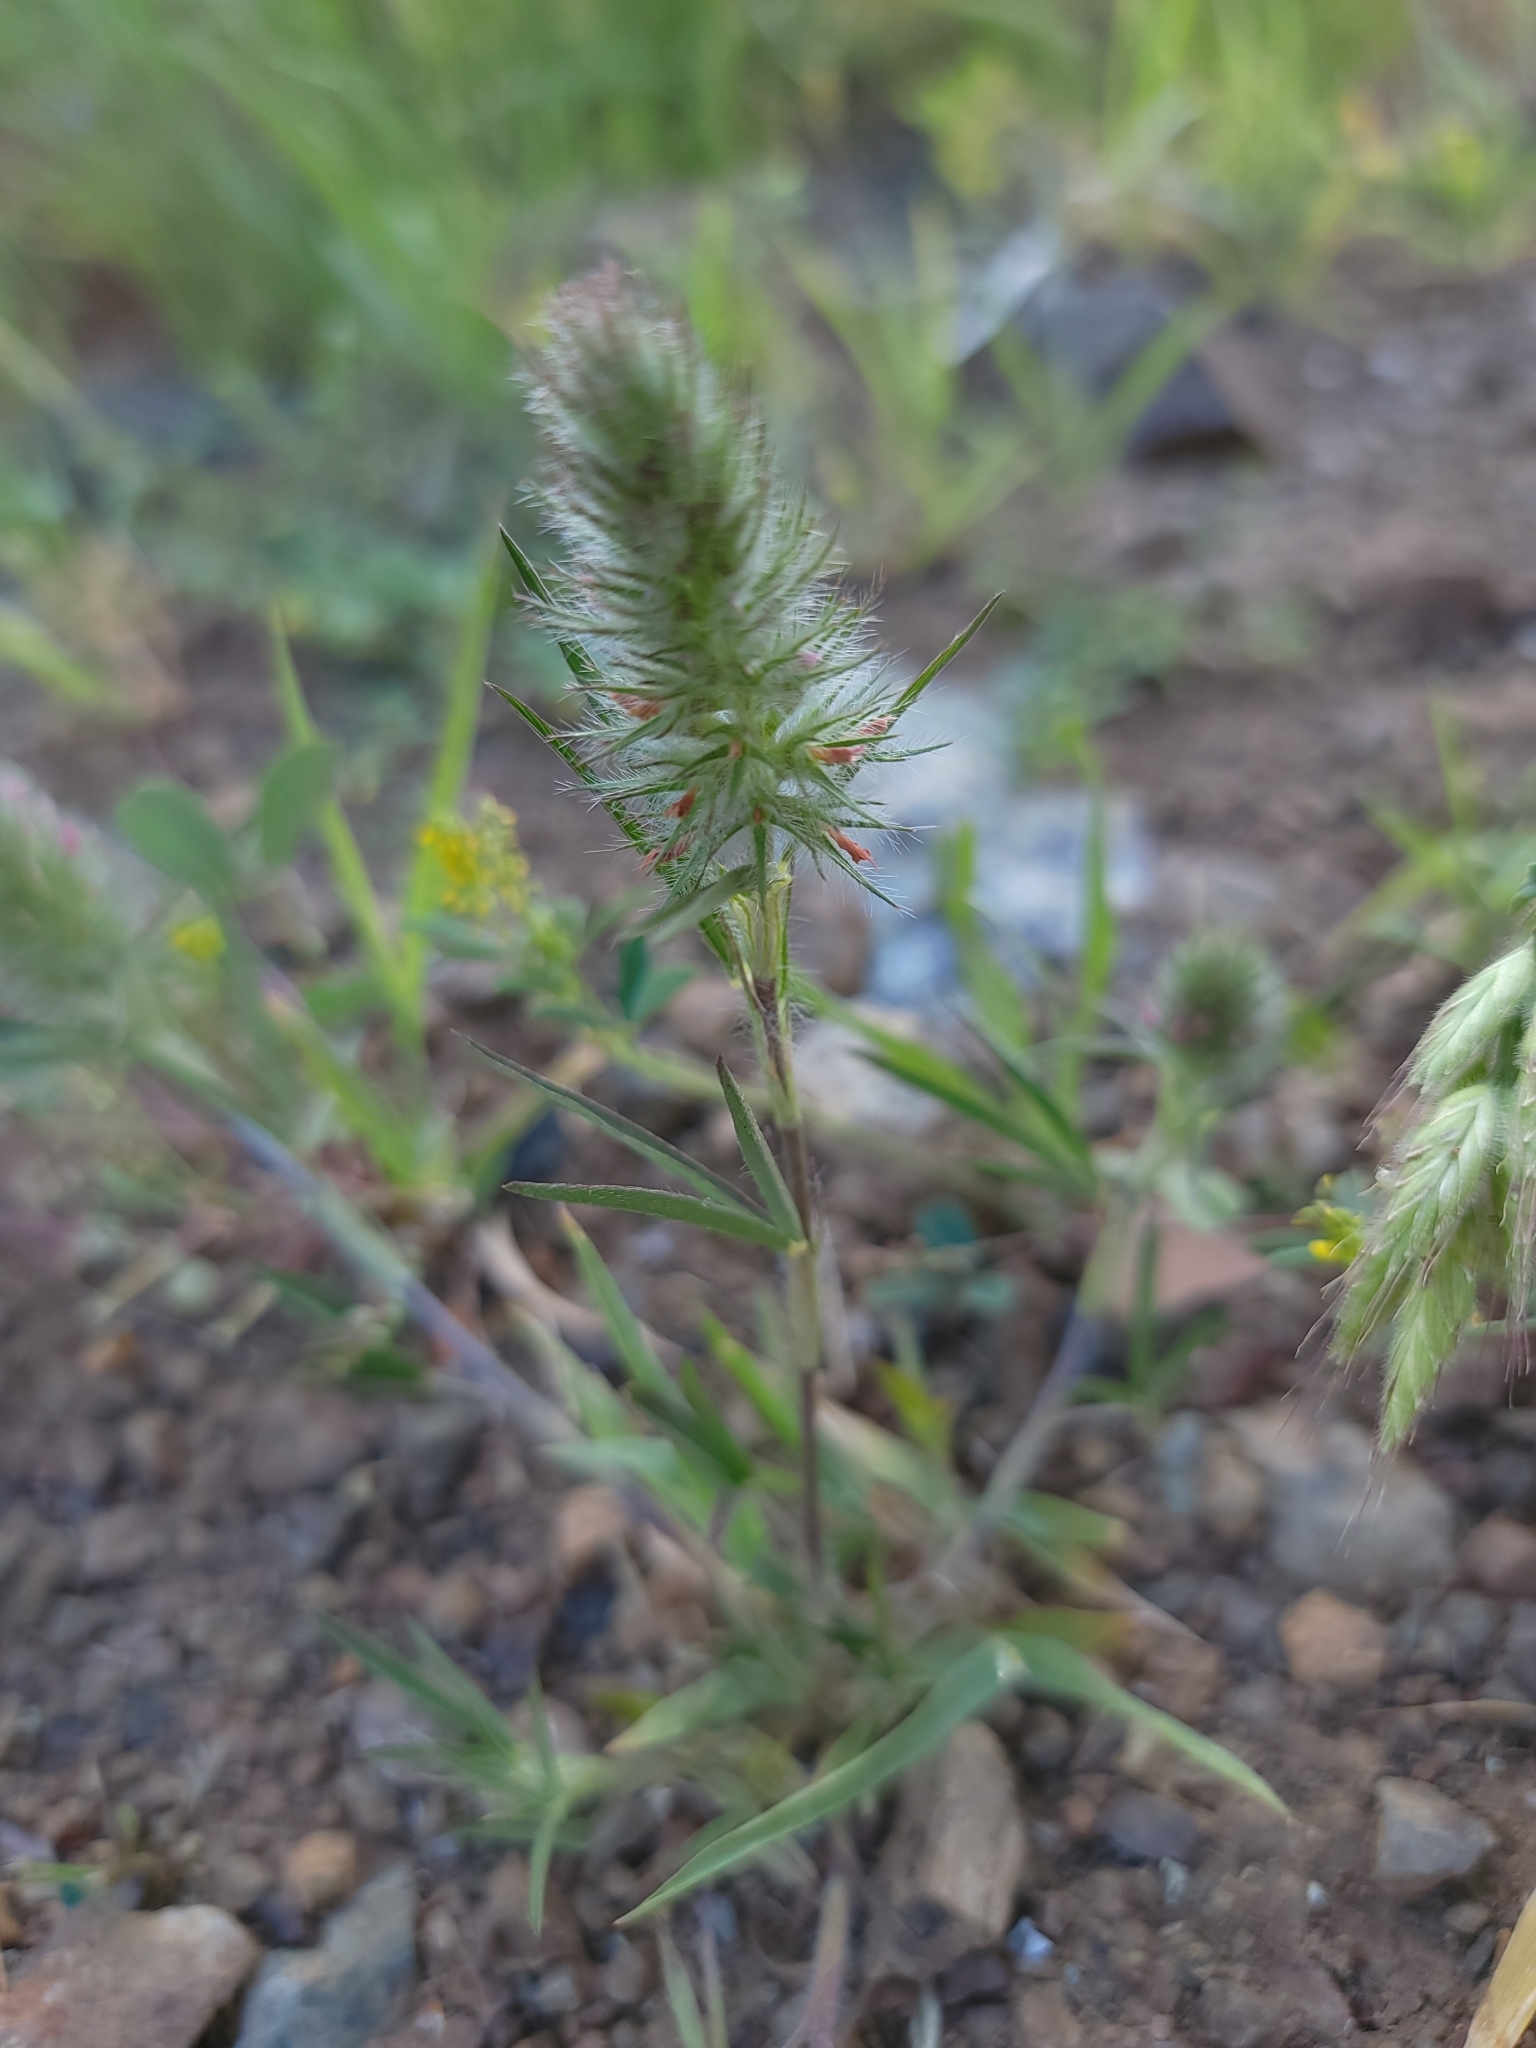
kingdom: Plantae
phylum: Tracheophyta
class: Magnoliopsida
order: Fabales
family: Fabaceae
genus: Trifolium
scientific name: Trifolium angustifolium
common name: Narrow clover
